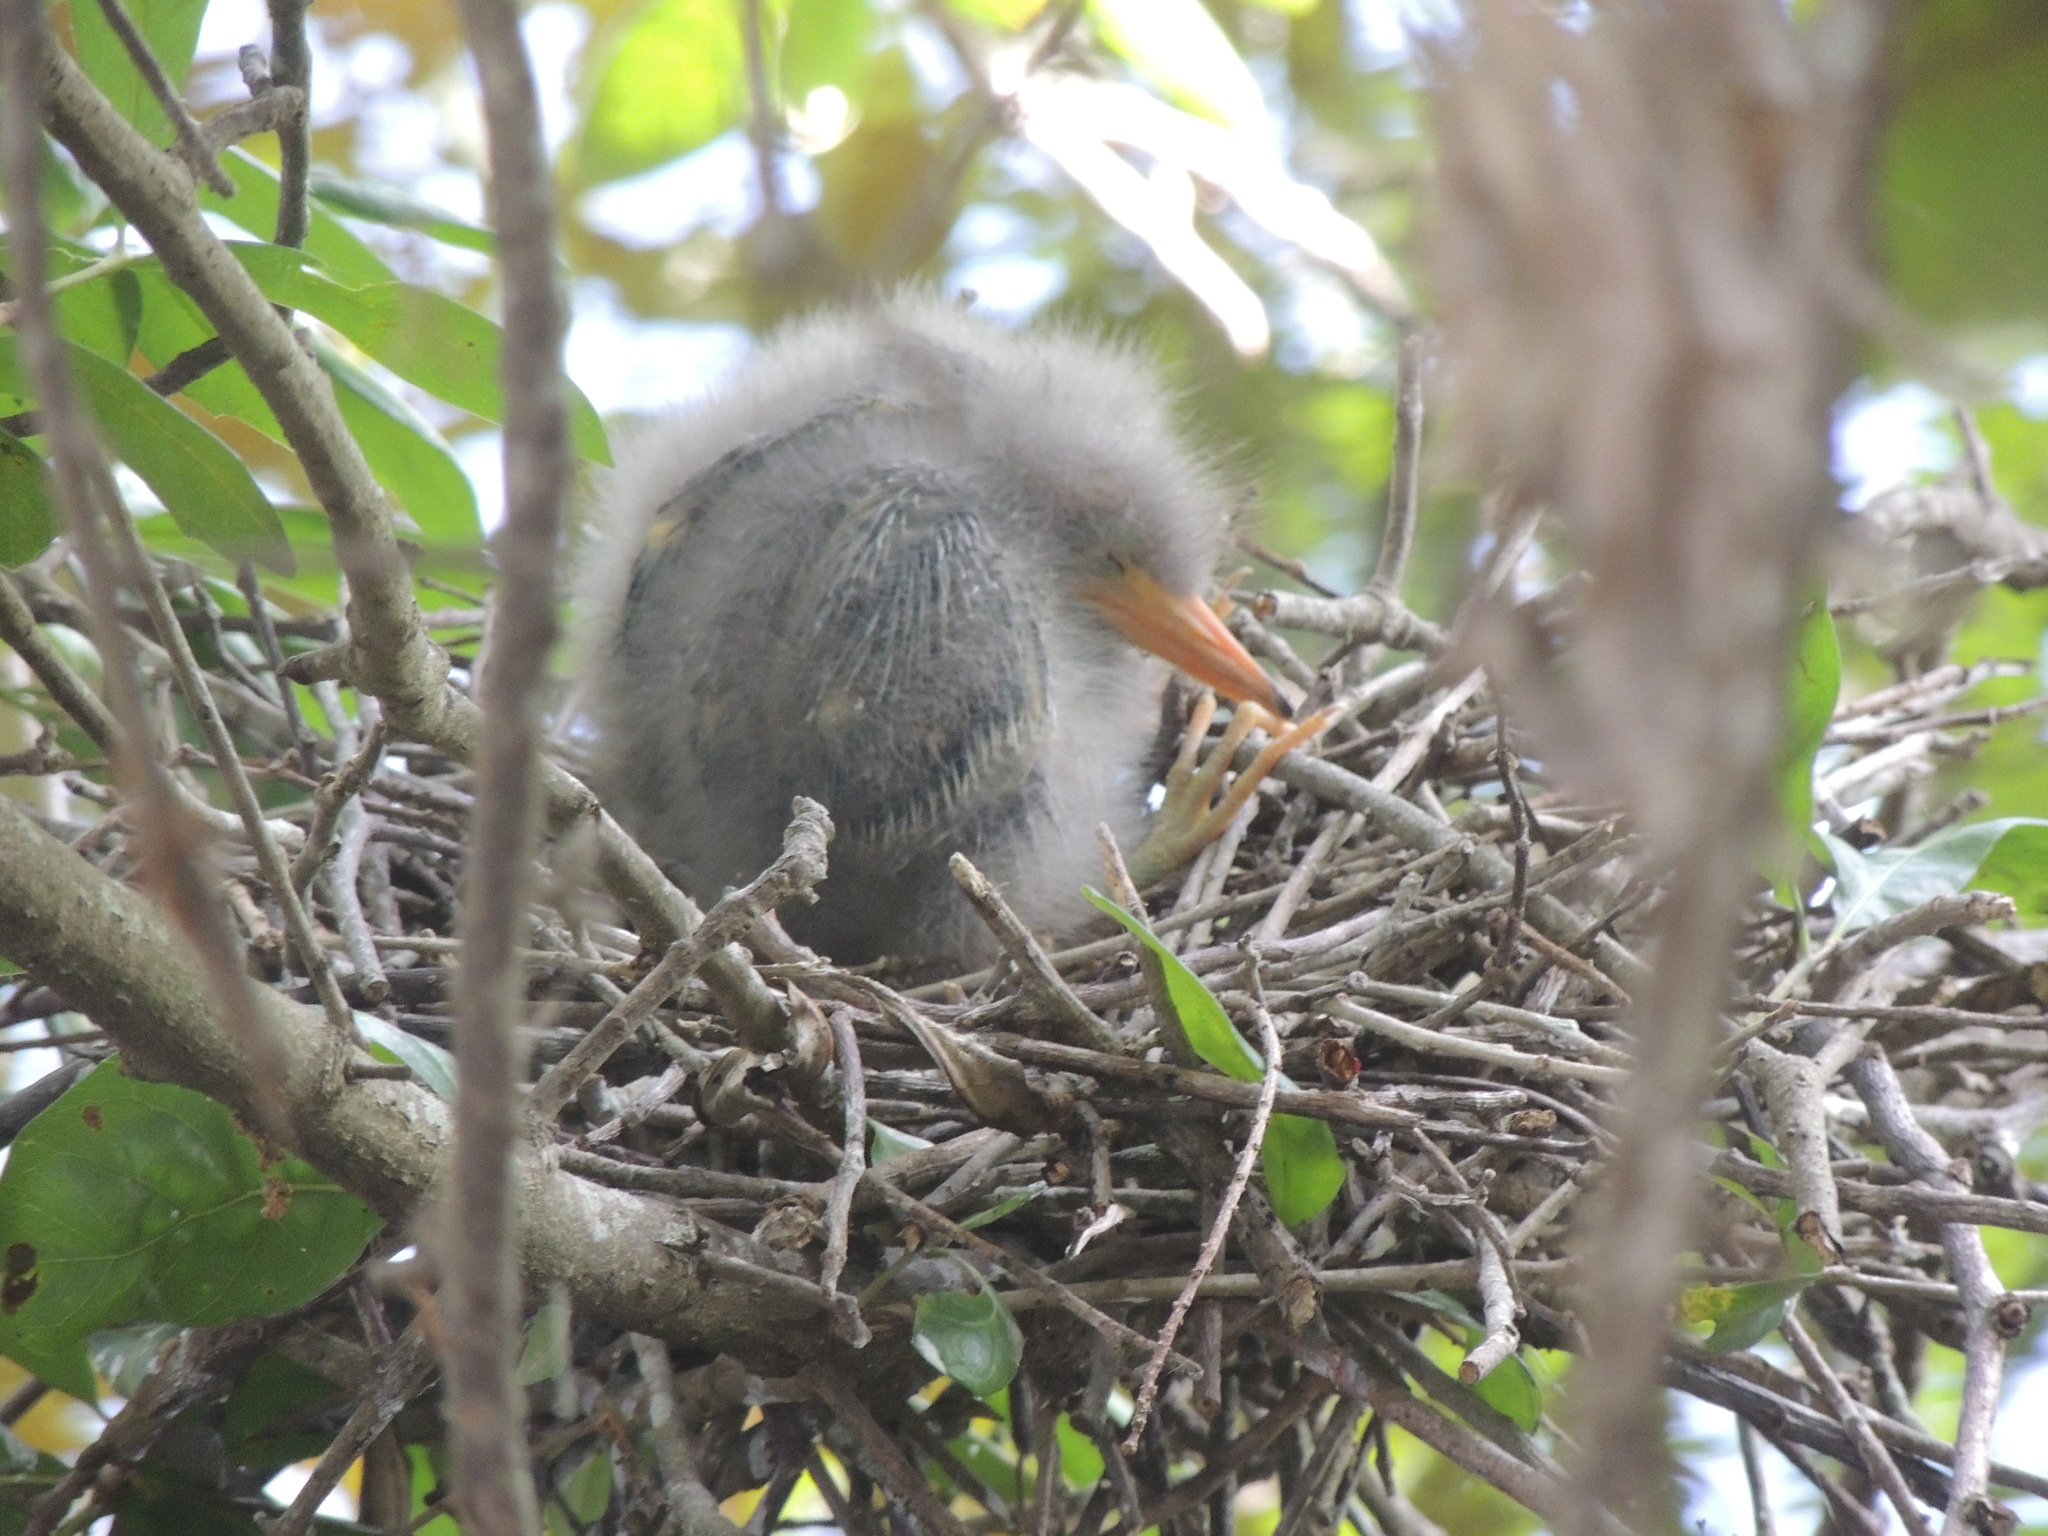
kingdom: Animalia
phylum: Chordata
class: Aves
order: Pelecaniformes
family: Ardeidae
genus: Butorides
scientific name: Butorides virescens
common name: Green heron
